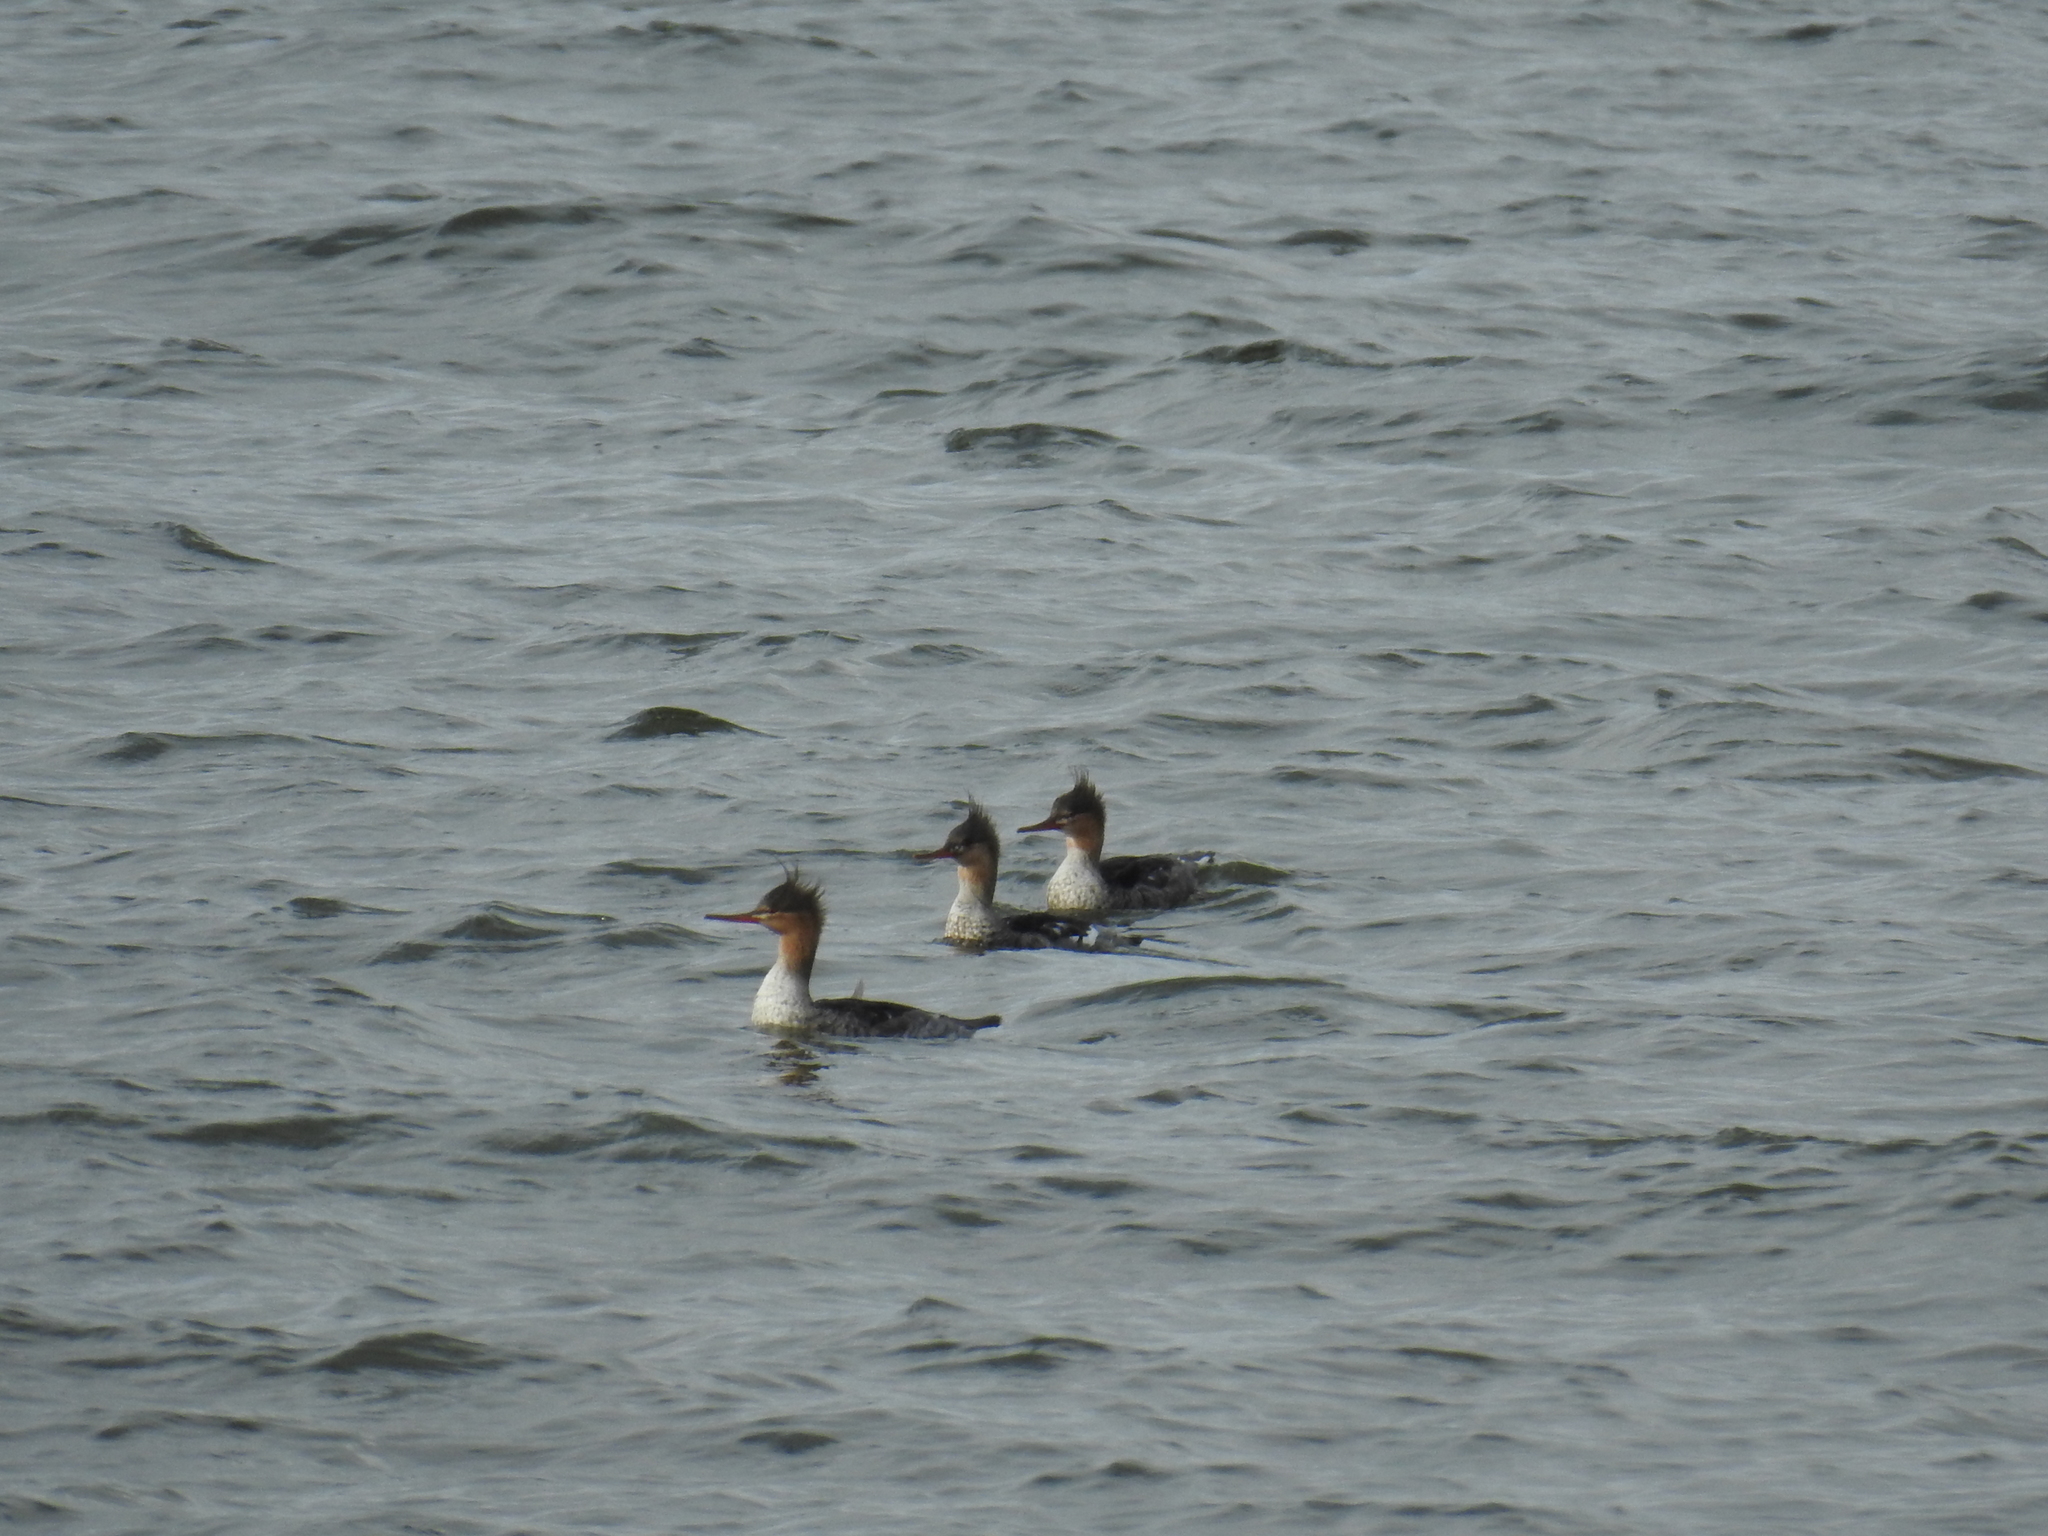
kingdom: Animalia
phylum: Chordata
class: Aves
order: Anseriformes
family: Anatidae
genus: Mergus
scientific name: Mergus serrator
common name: Red-breasted merganser
